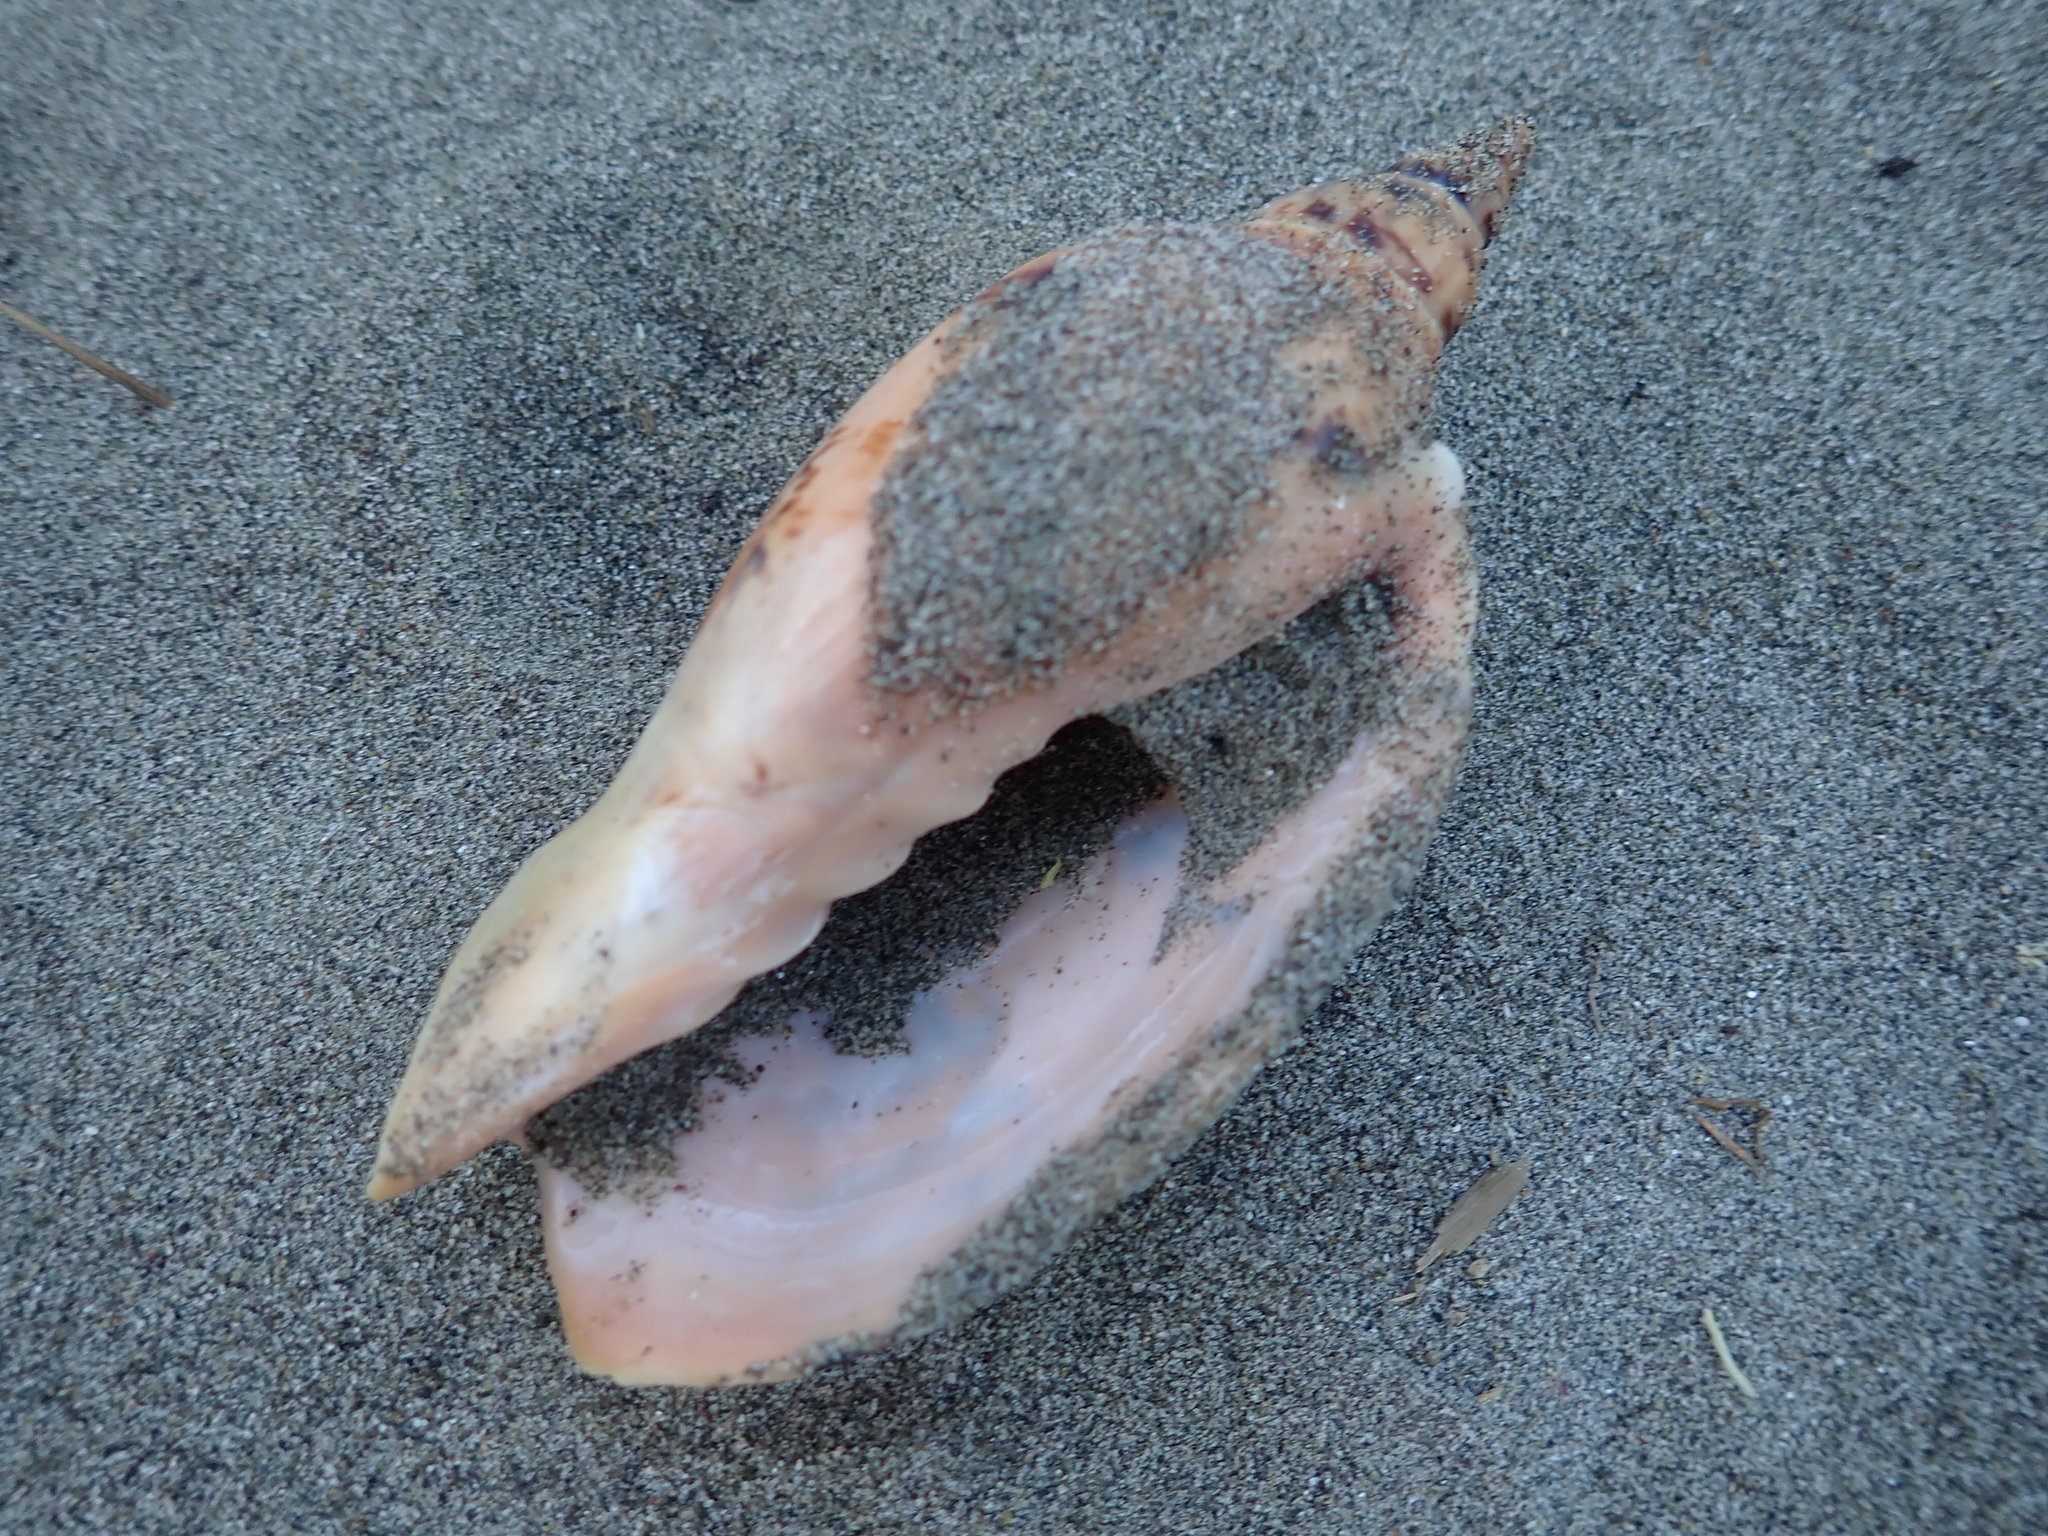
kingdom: Animalia
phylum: Mollusca
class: Gastropoda
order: Neogastropoda
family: Volutidae
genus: Alcithoe
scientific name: Alcithoe arabica
